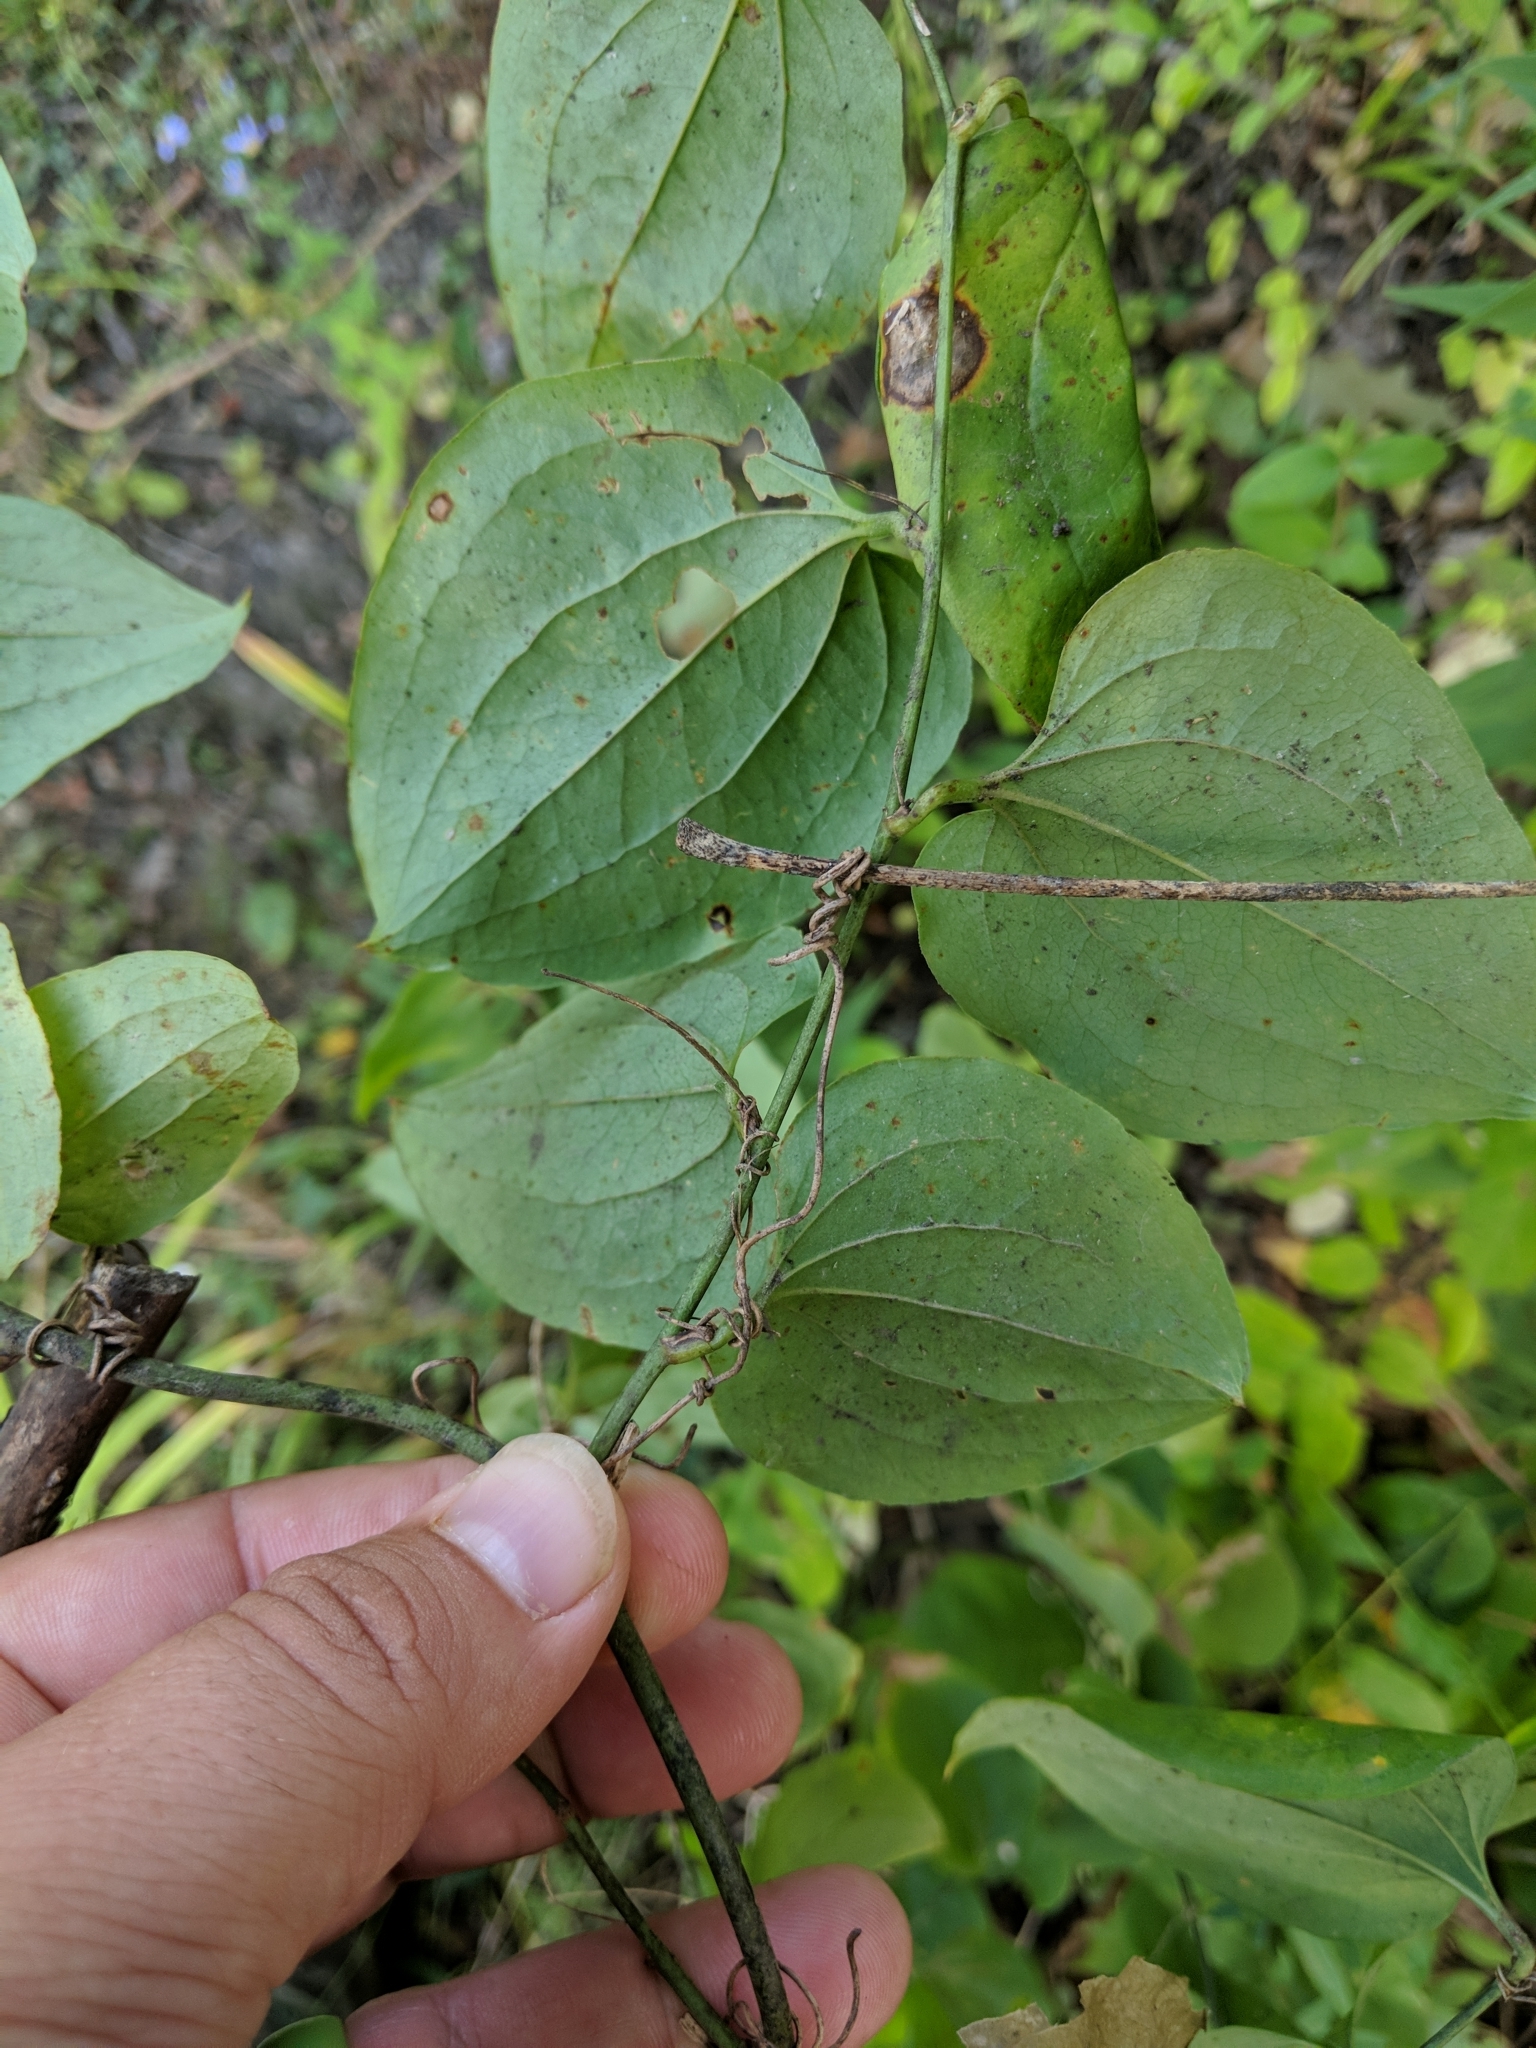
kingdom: Plantae
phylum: Tracheophyta
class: Liliopsida
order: Liliales
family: Smilacaceae
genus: Smilax
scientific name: Smilax tamnoides
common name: Hellfetter
